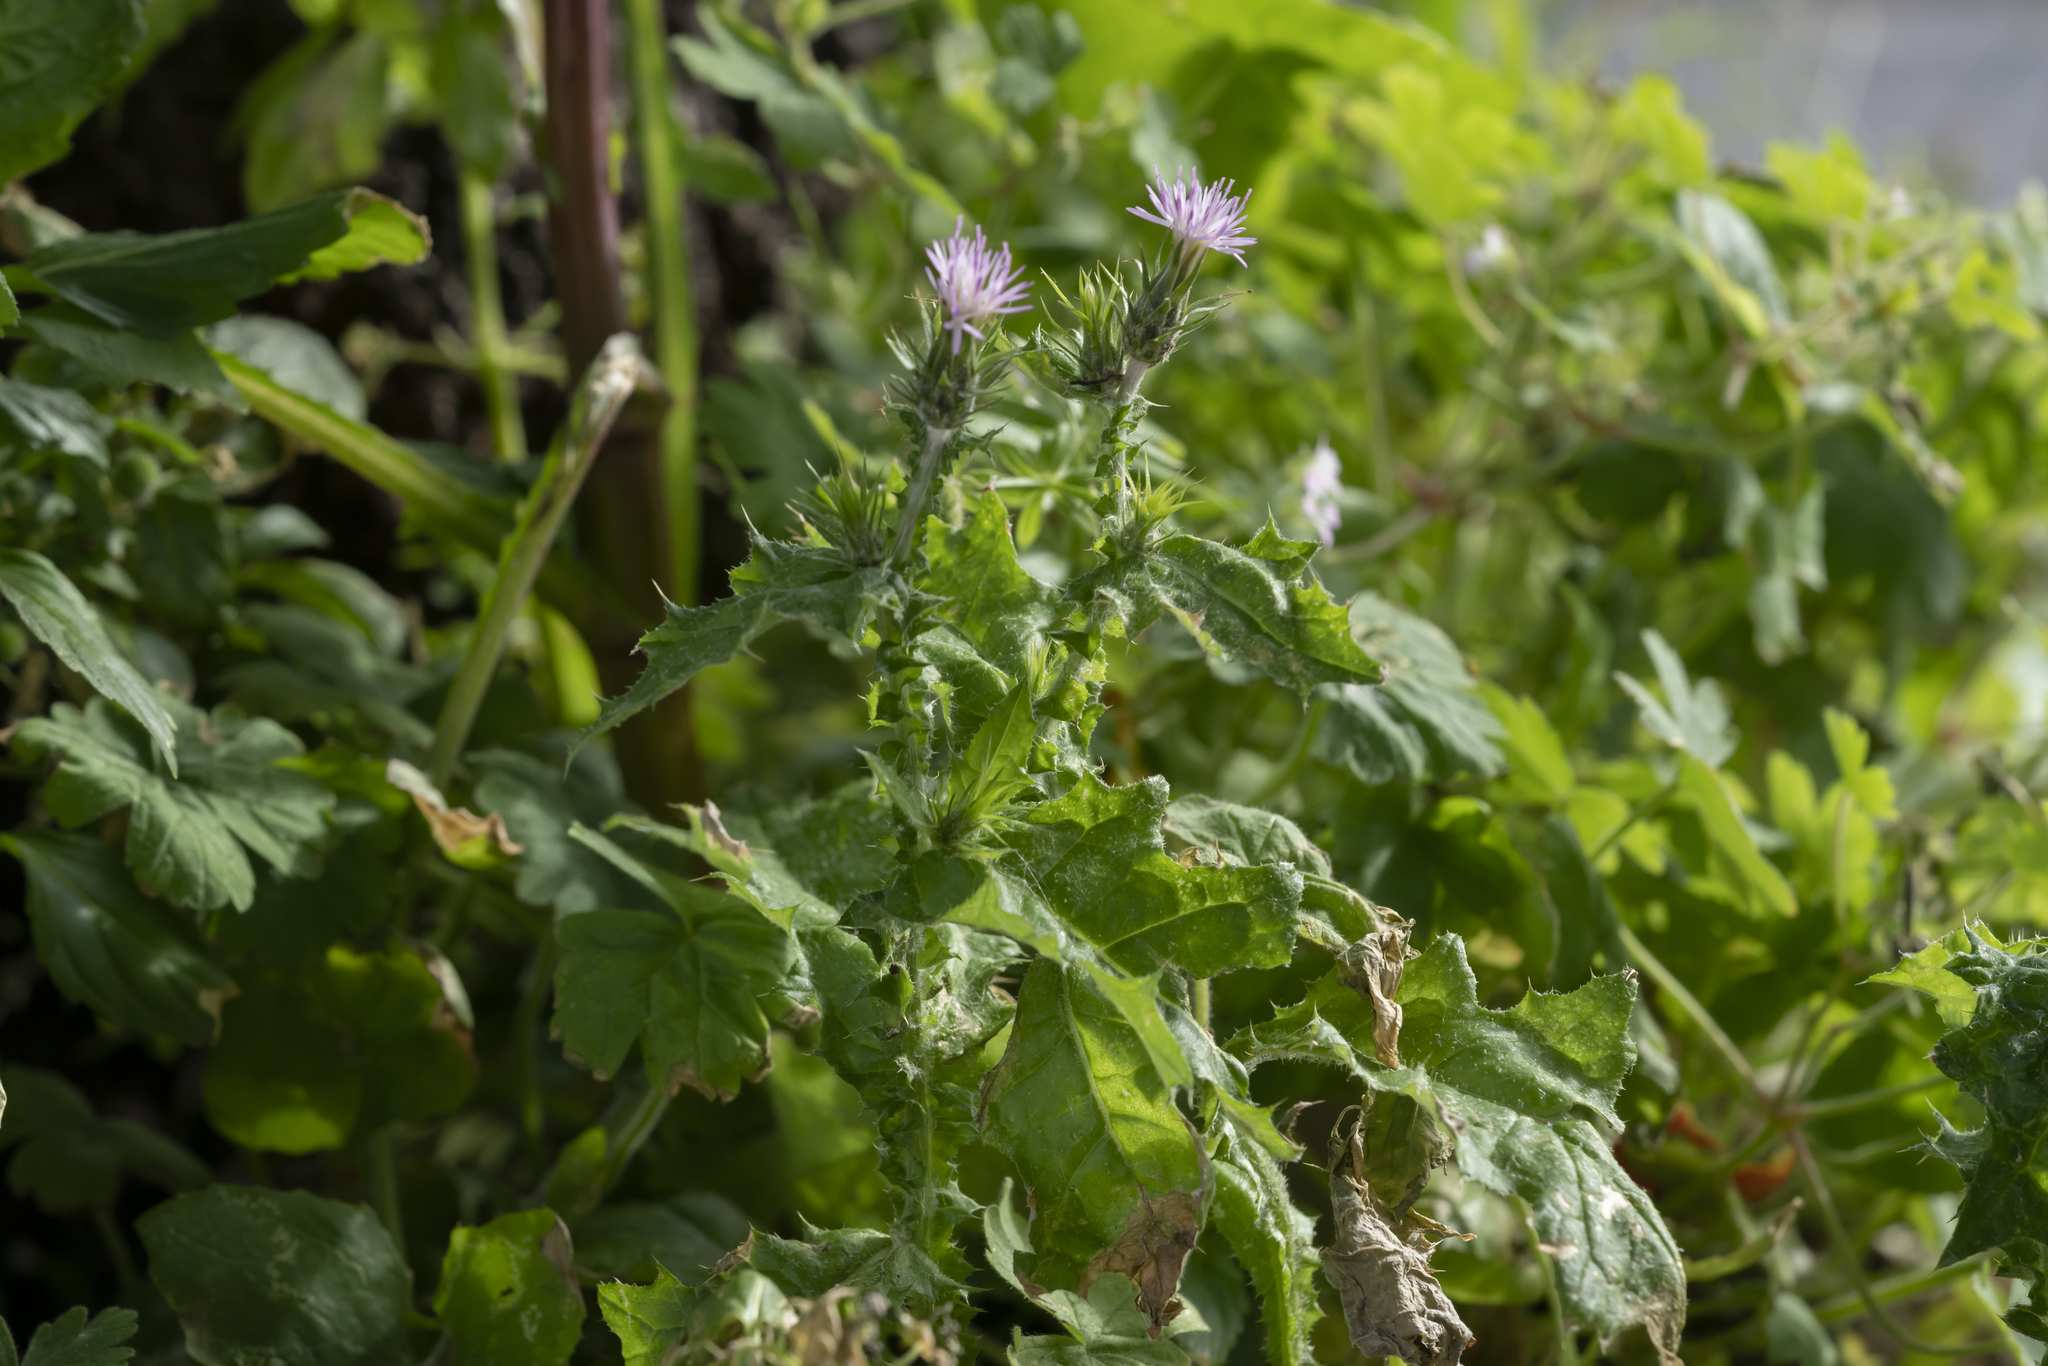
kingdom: Plantae
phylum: Tracheophyta
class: Magnoliopsida
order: Asterales
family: Asteraceae
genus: Carduus
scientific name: Carduus pycnocephalus
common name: Plymouth thistle
